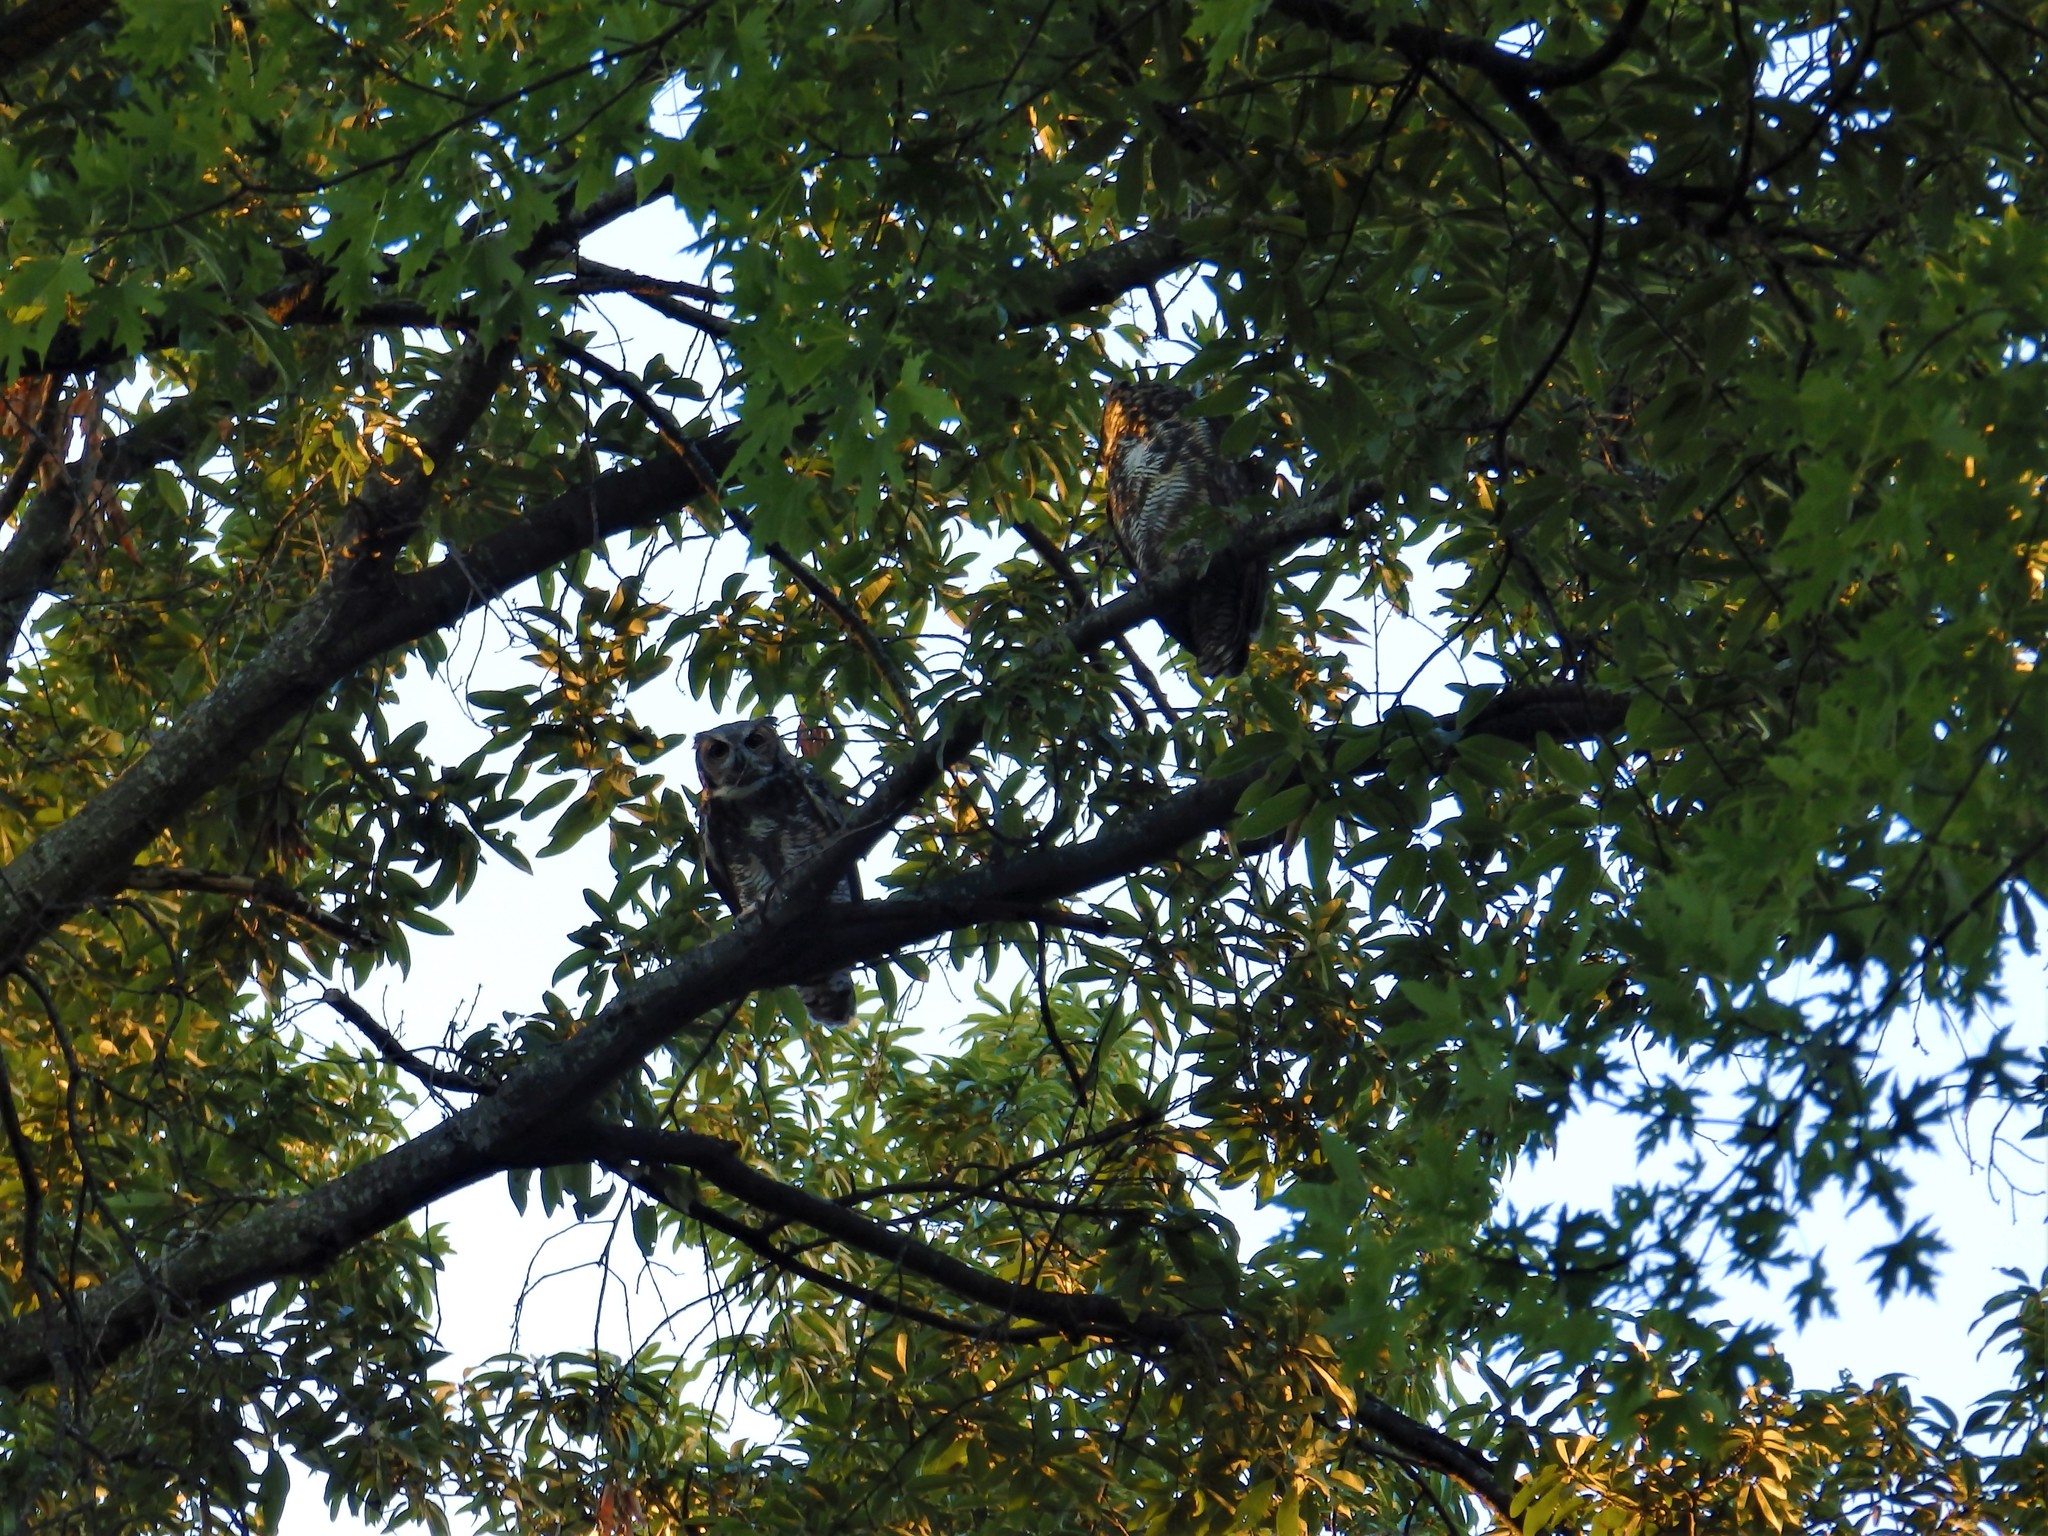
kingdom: Animalia
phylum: Chordata
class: Aves
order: Strigiformes
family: Strigidae
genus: Bubo
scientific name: Bubo virginianus
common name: Great horned owl
